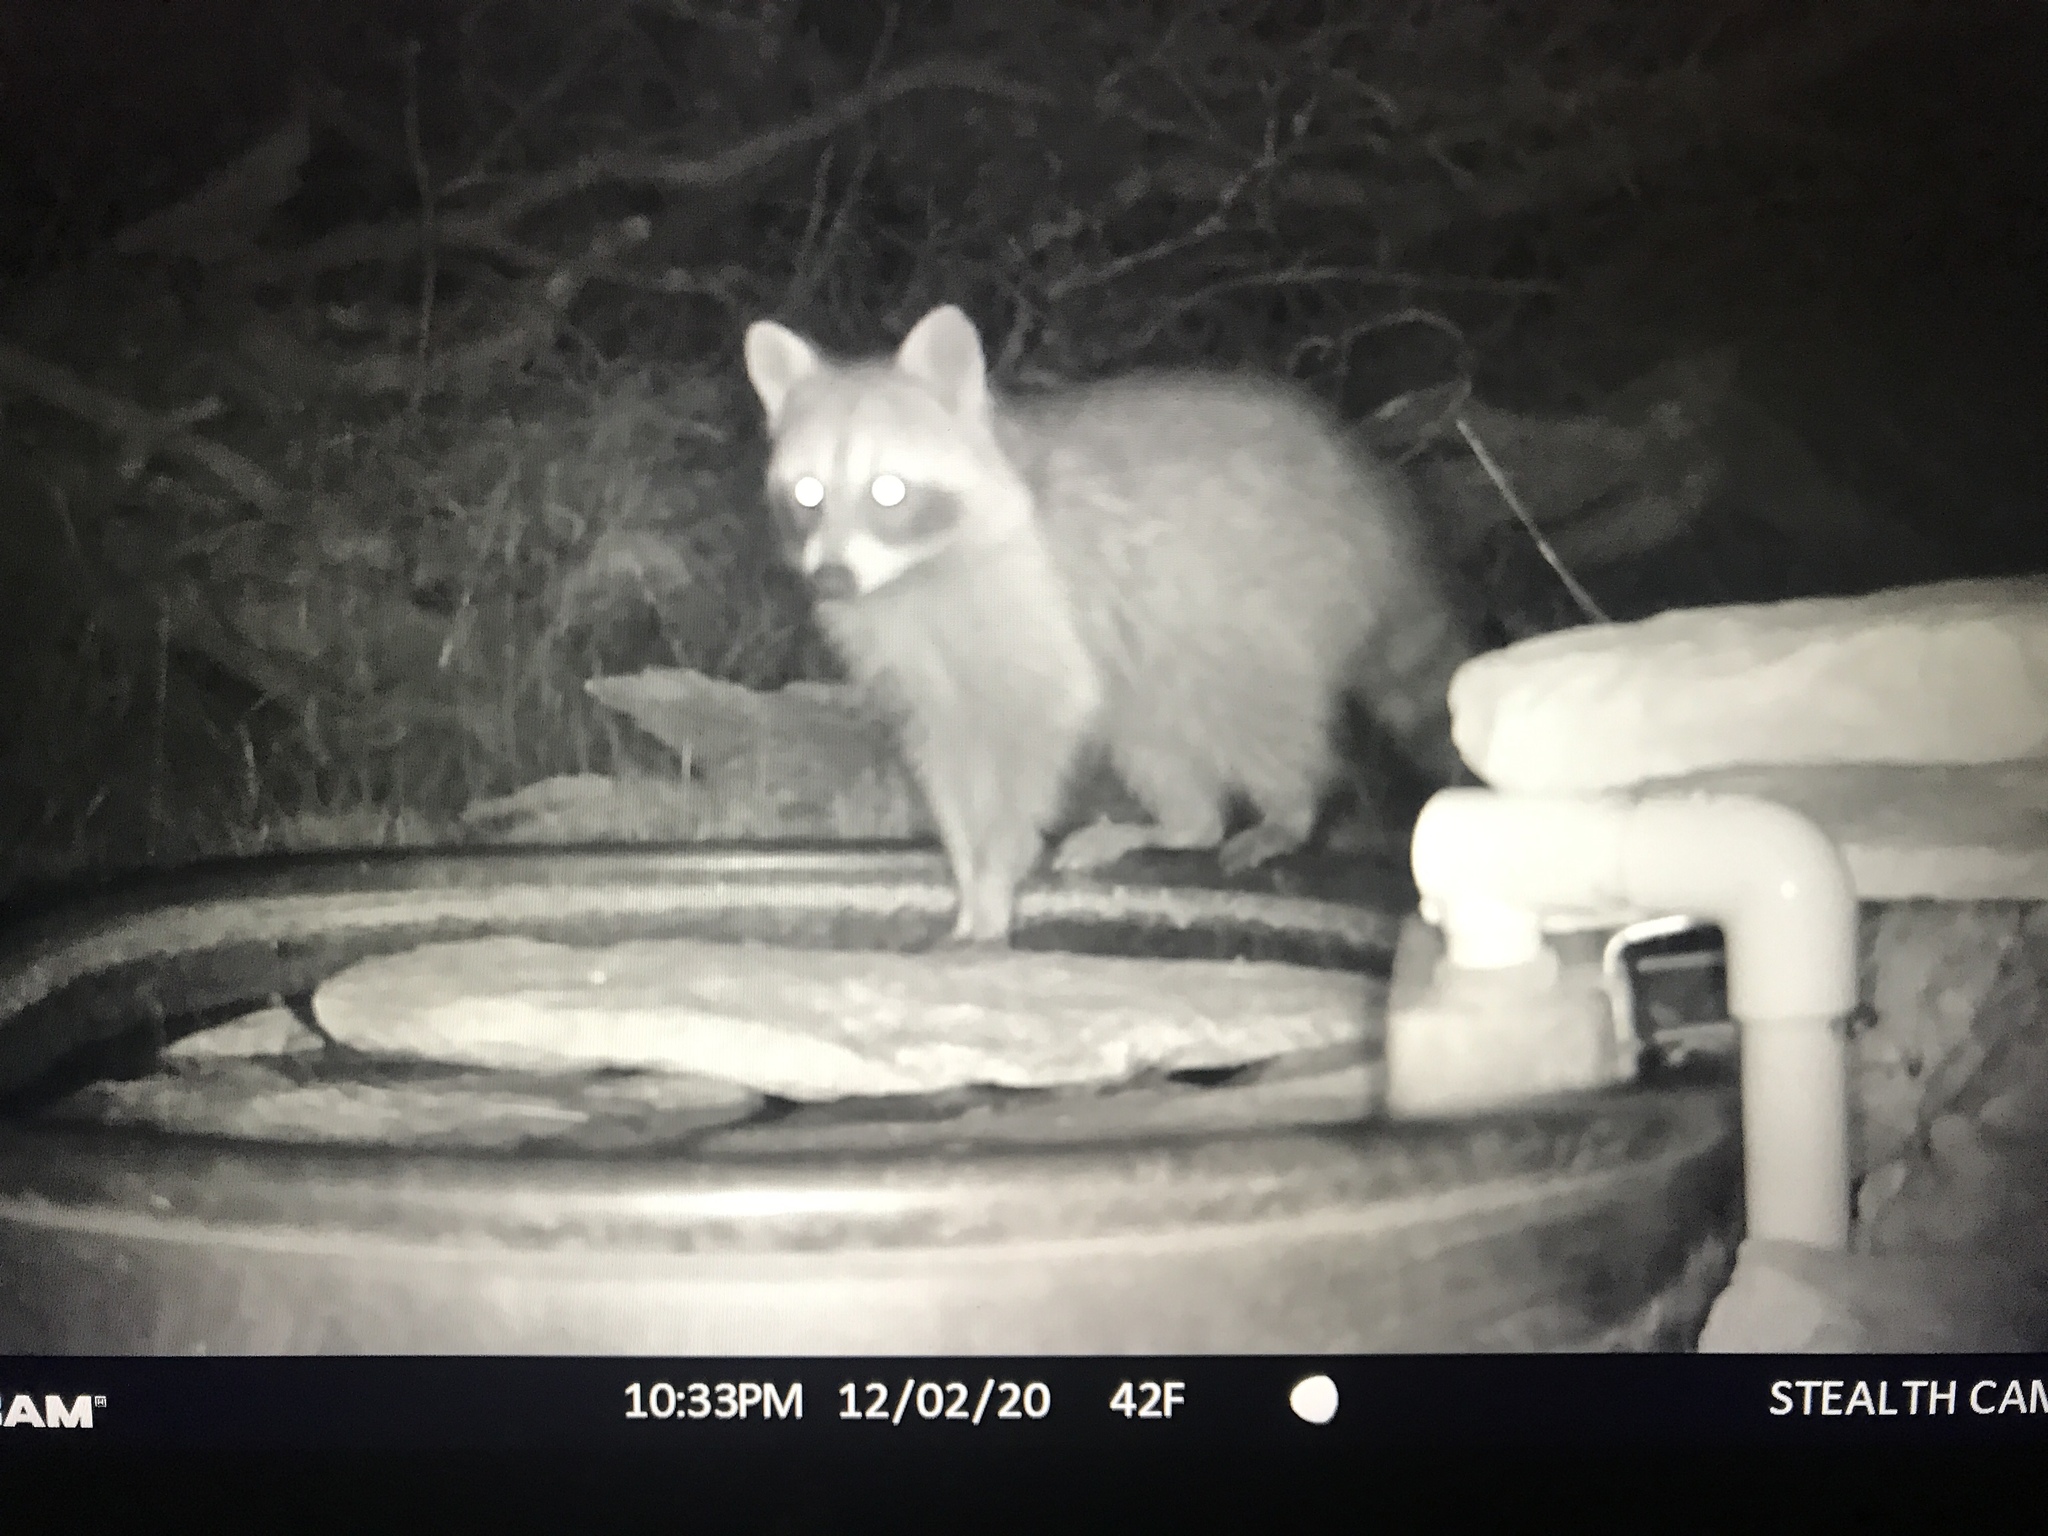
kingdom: Animalia
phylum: Chordata
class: Mammalia
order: Carnivora
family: Procyonidae
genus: Procyon
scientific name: Procyon lotor
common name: Raccoon
